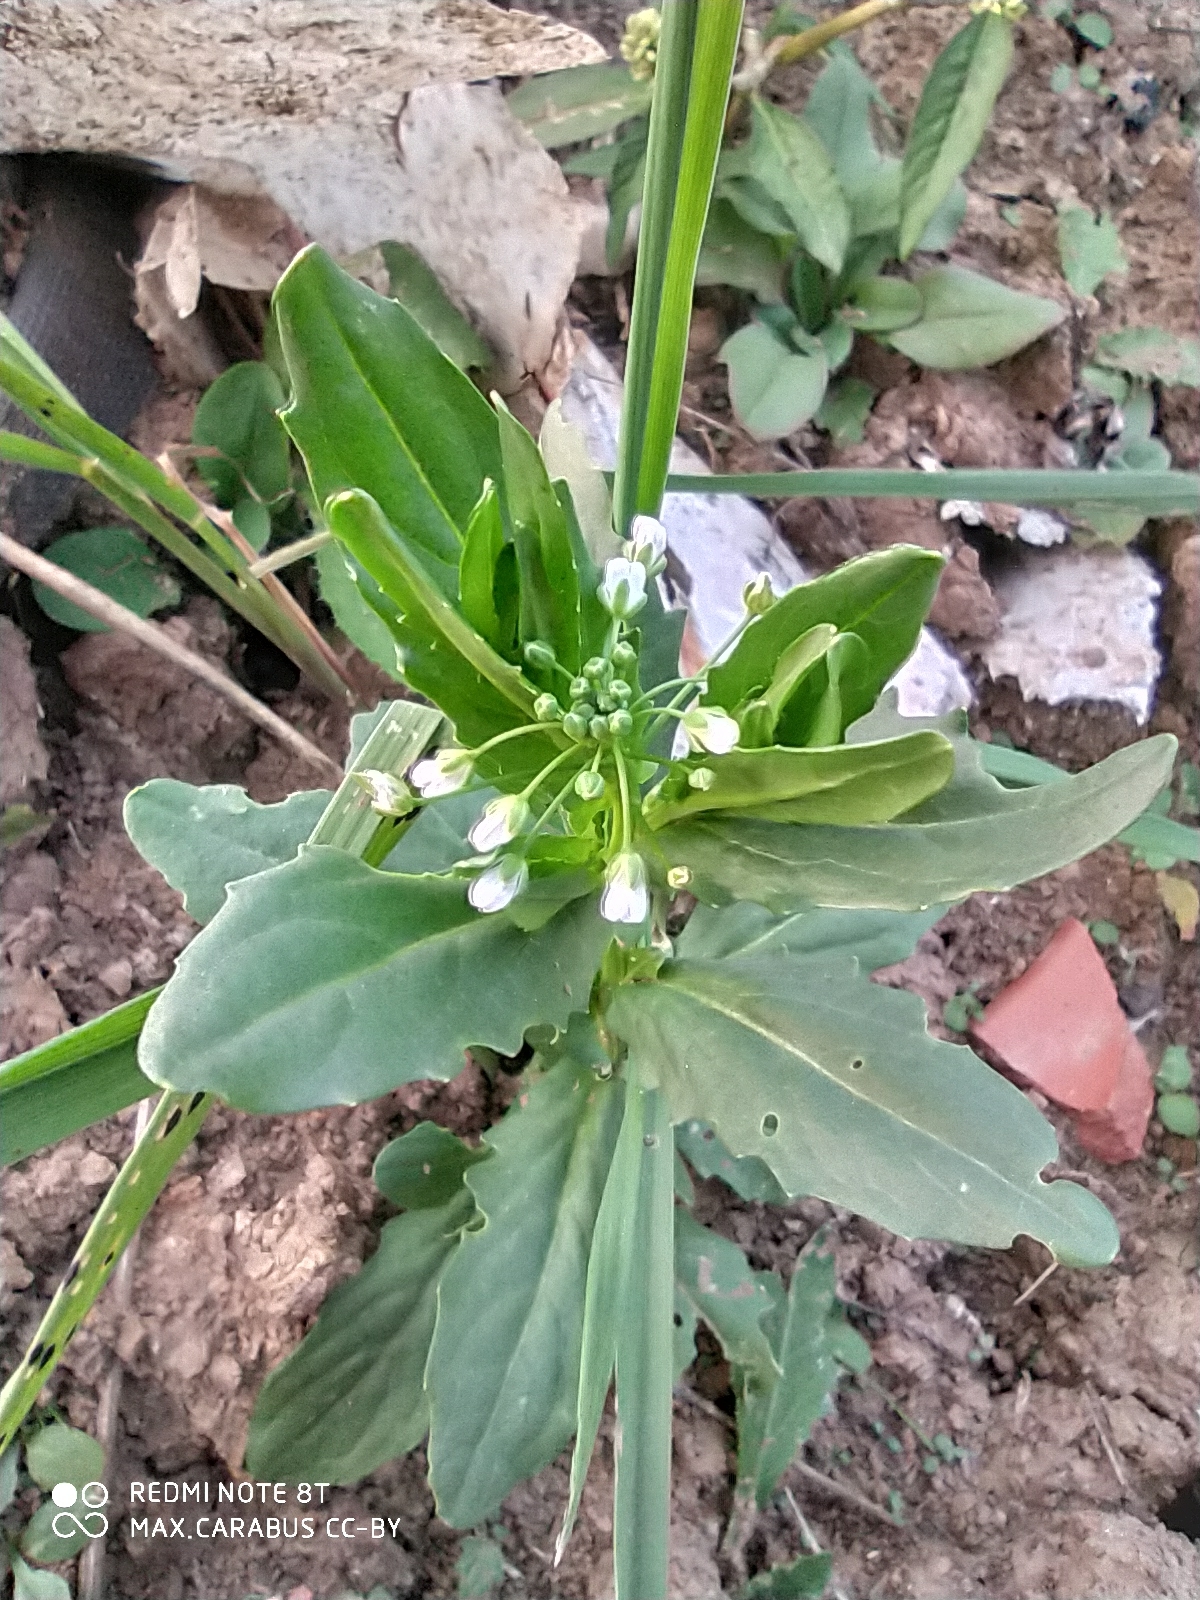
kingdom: Plantae
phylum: Tracheophyta
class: Magnoliopsida
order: Brassicales
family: Brassicaceae
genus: Thlaspi
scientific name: Thlaspi arvense
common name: Field pennycress
